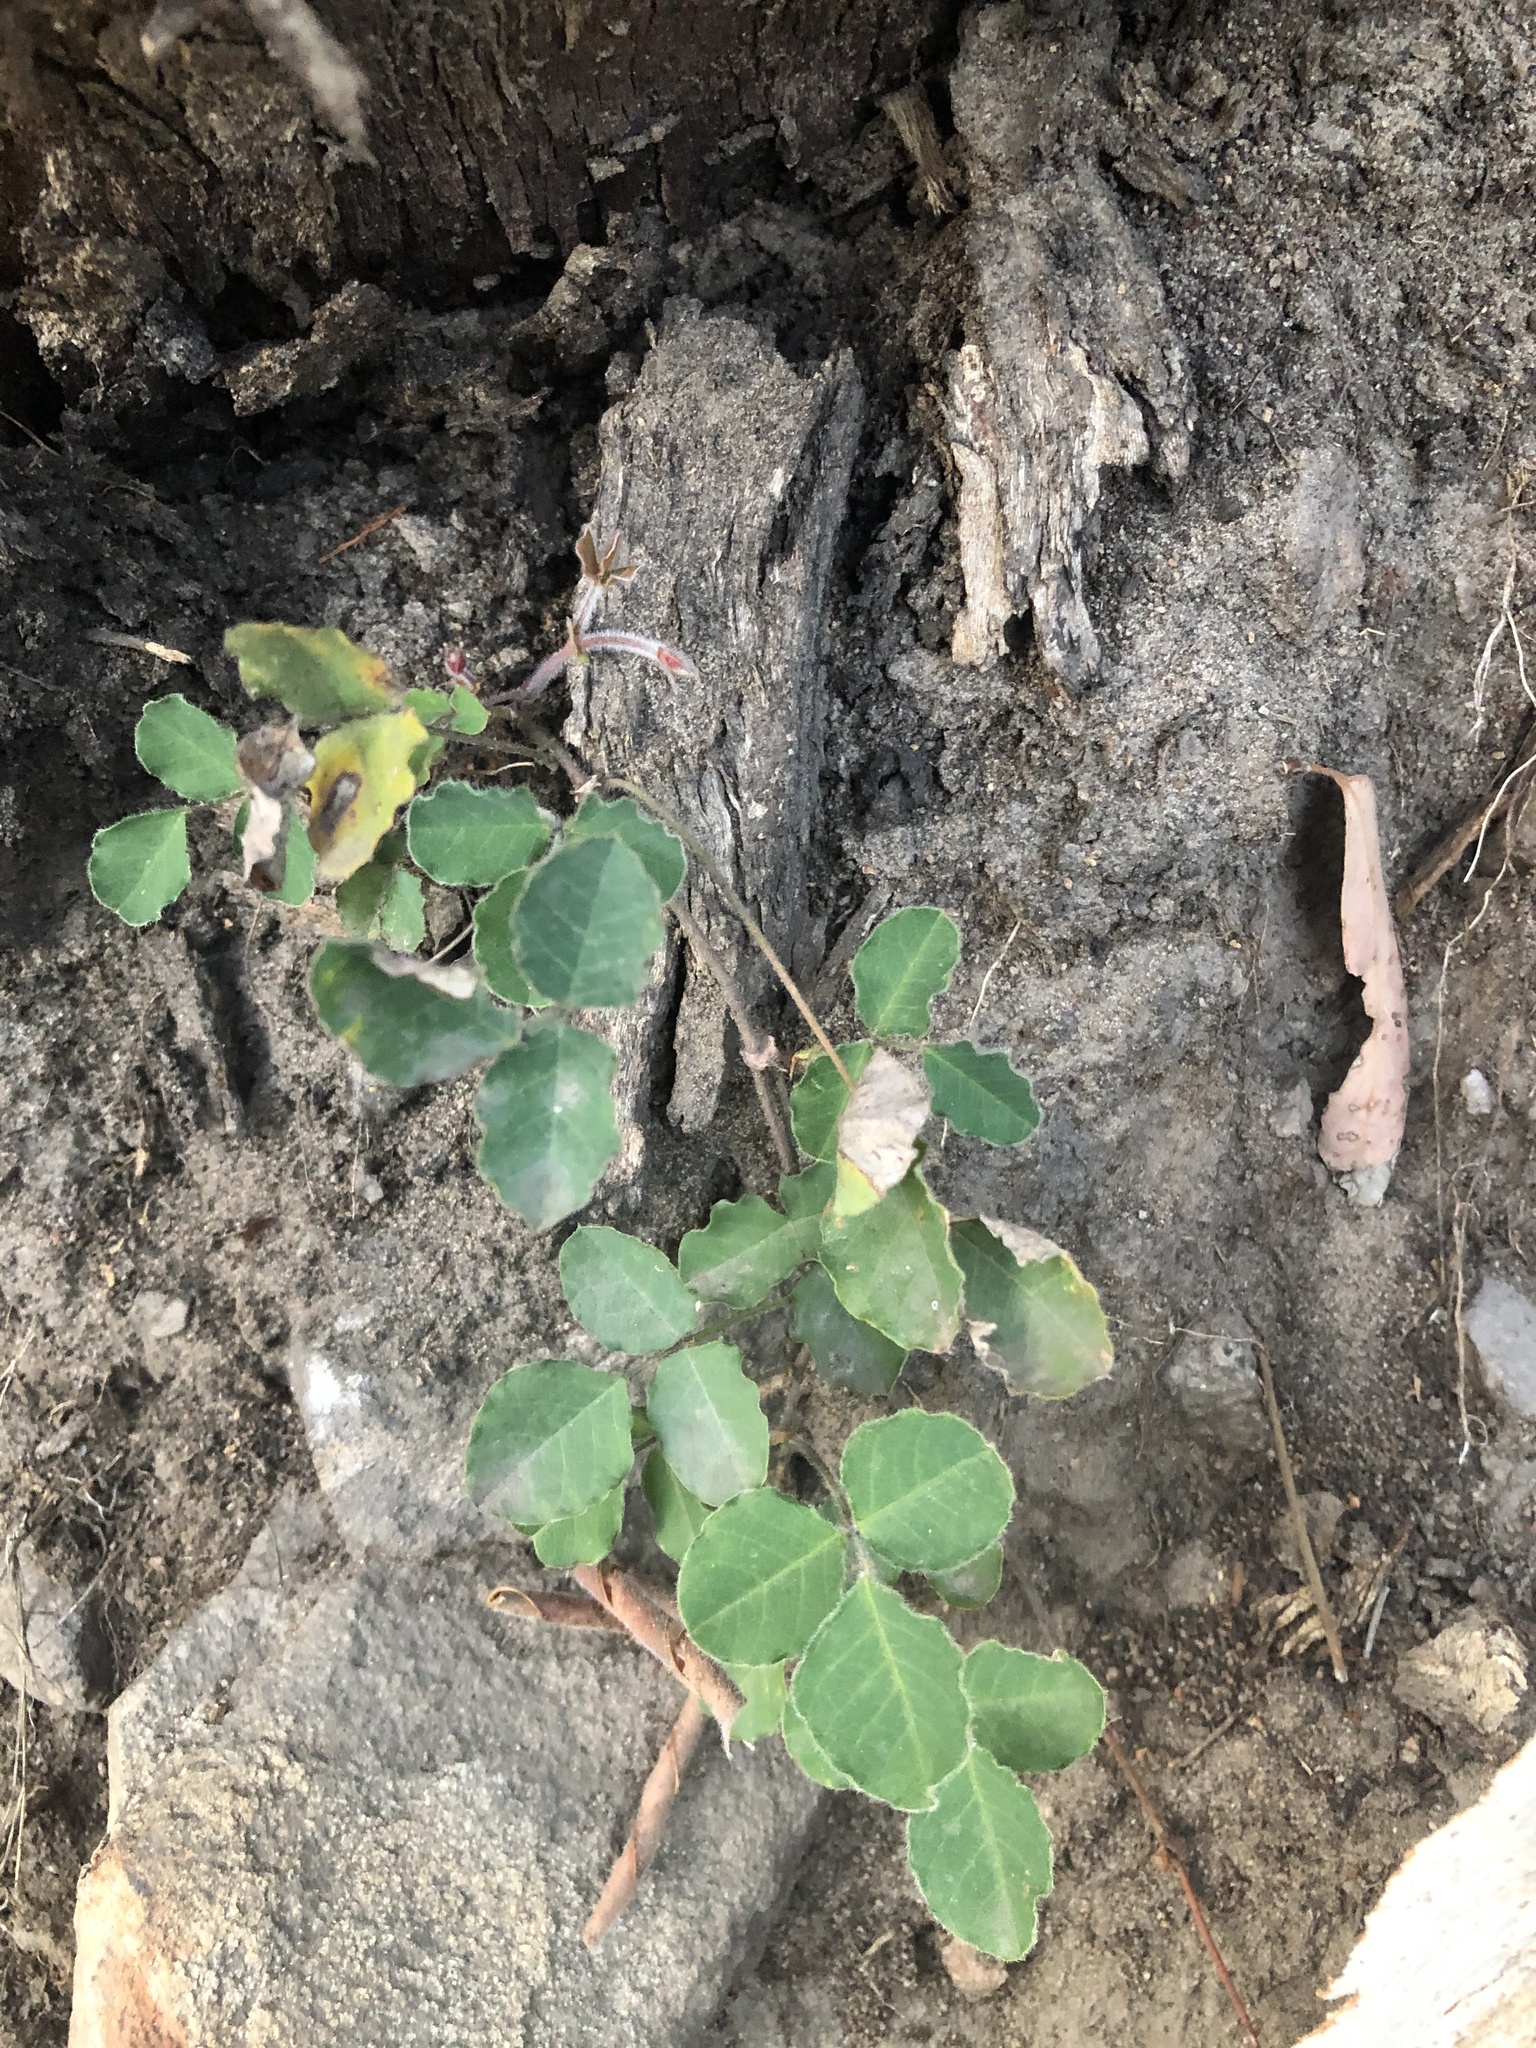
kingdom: Plantae
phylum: Tracheophyta
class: Magnoliopsida
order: Fabales
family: Fabaceae
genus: Kennedia
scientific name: Kennedia prostrata
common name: Running-postman
